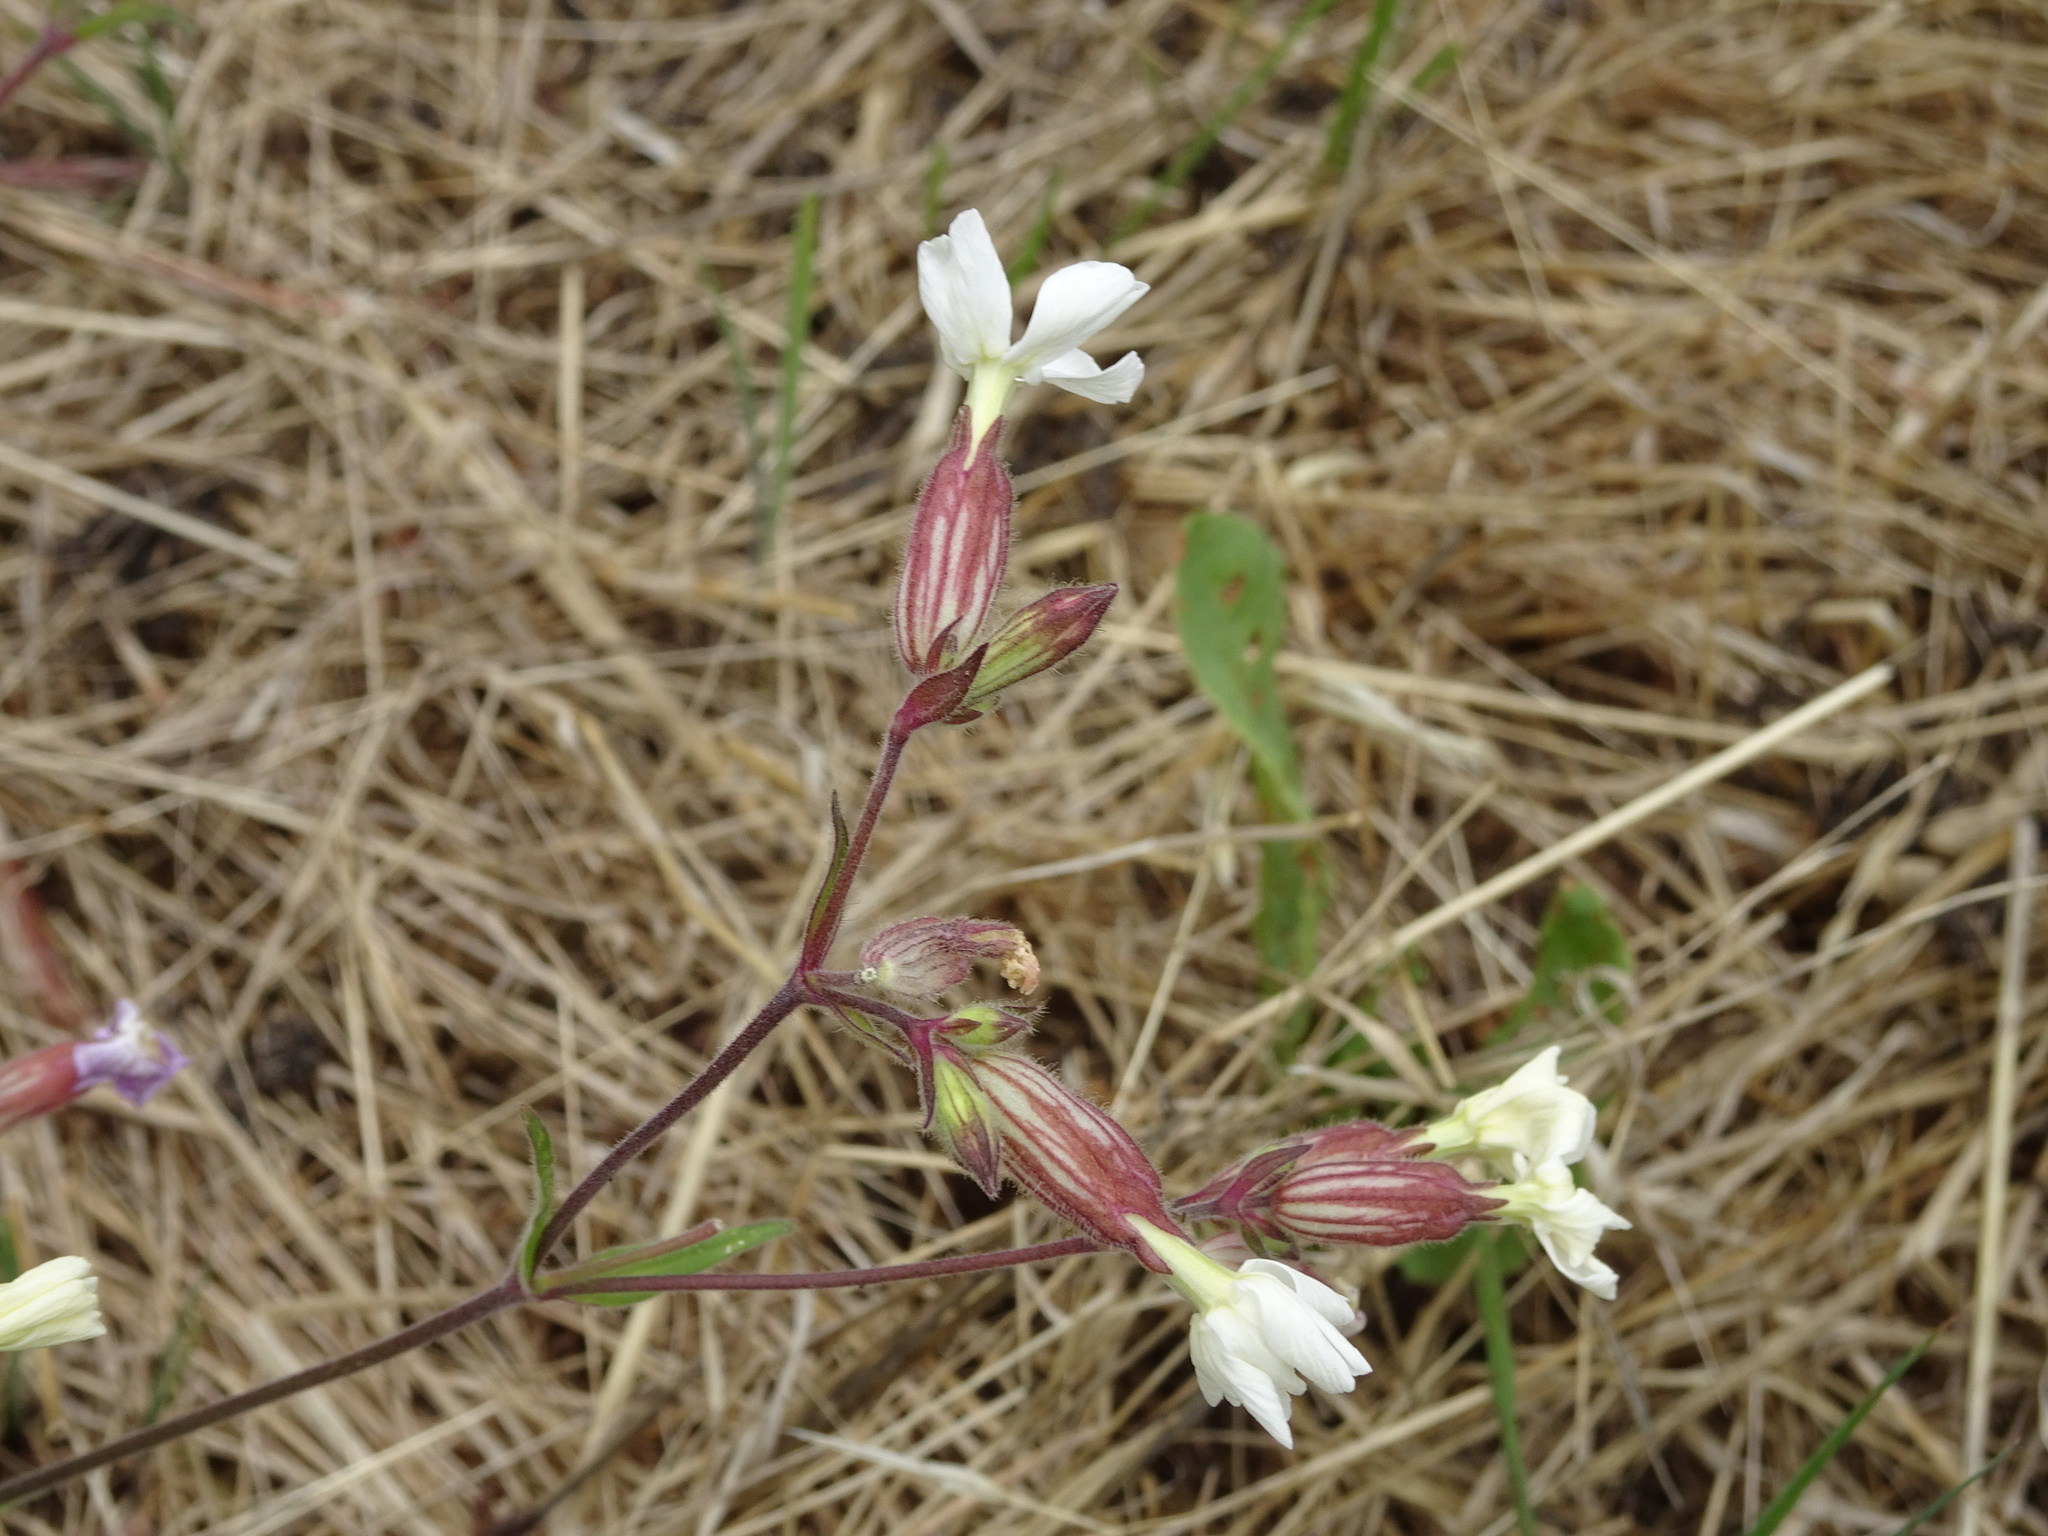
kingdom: Plantae
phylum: Tracheophyta
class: Magnoliopsida
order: Caryophyllales
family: Caryophyllaceae
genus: Silene
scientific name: Silene latifolia
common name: White campion
